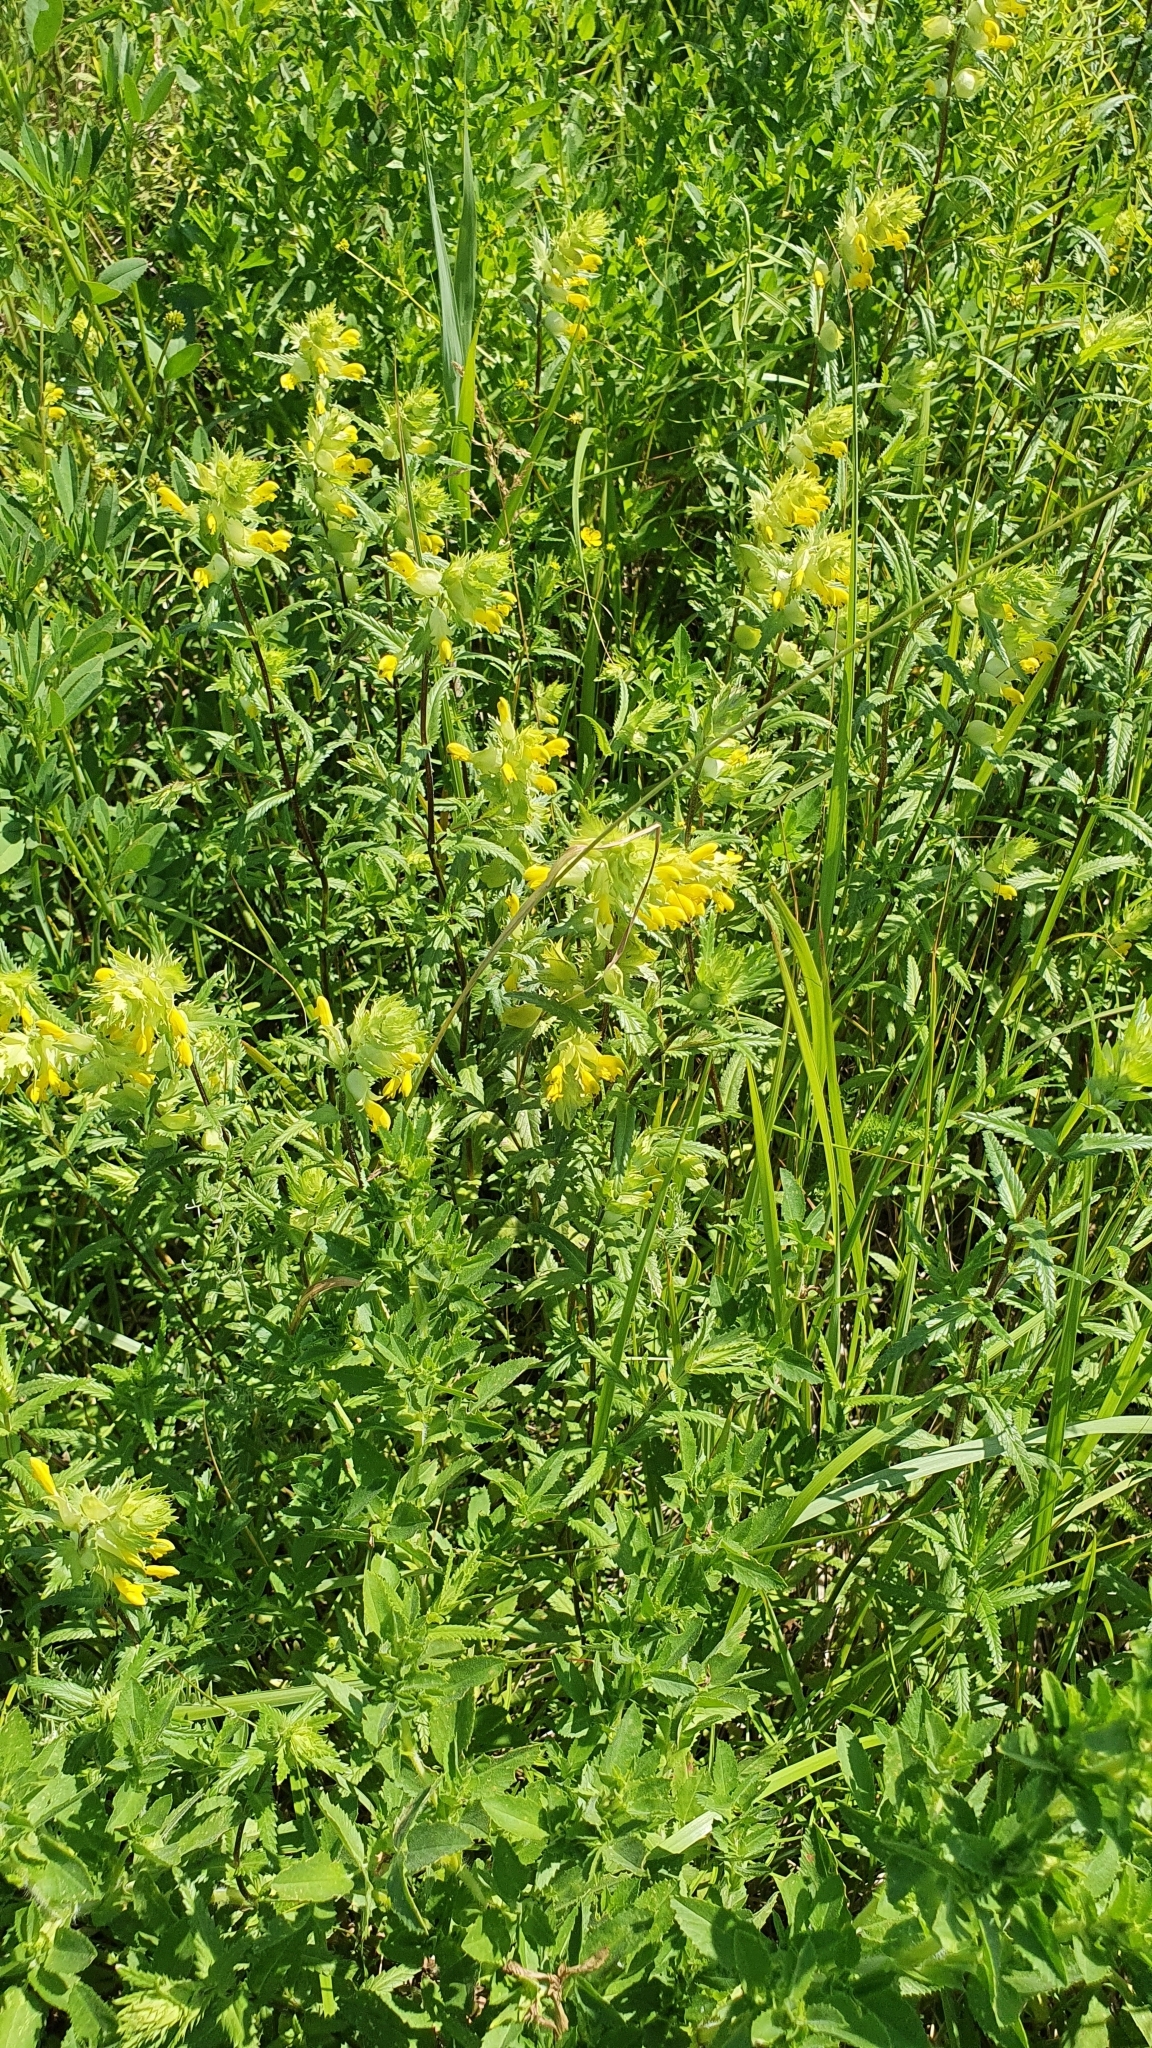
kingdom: Plantae
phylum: Tracheophyta
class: Magnoliopsida
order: Lamiales
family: Orobanchaceae
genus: Rhinanthus
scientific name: Rhinanthus serotinus
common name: Late-flowering yellow rattle
